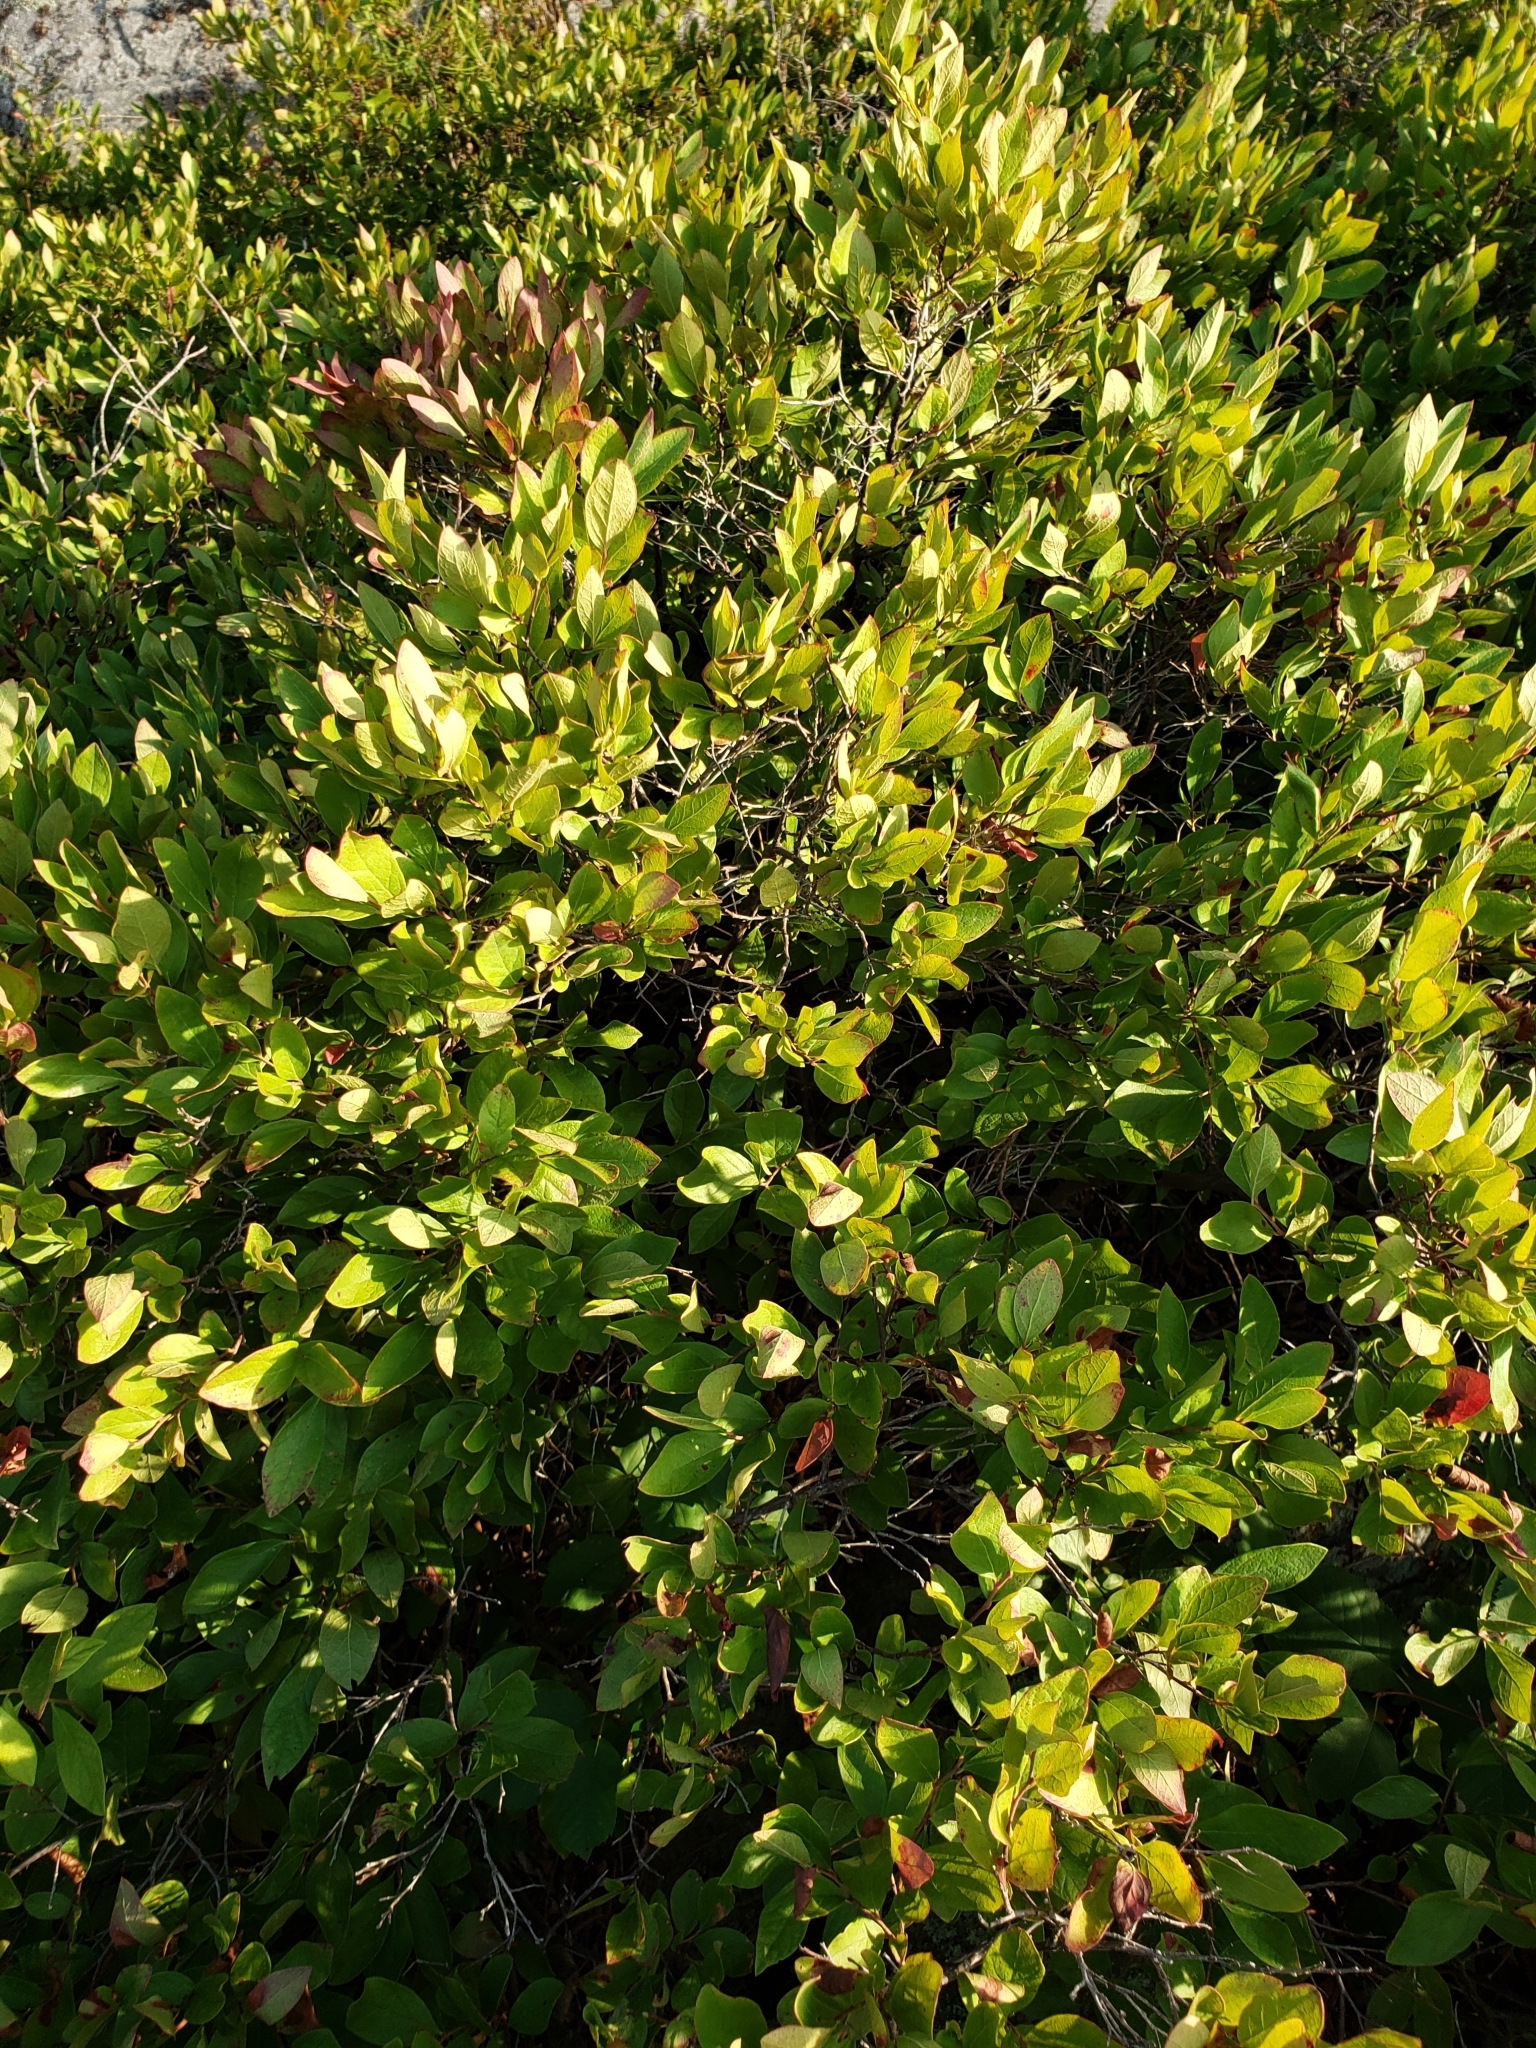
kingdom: Plantae
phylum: Tracheophyta
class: Magnoliopsida
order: Ericales
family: Ericaceae
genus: Gaylussacia
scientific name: Gaylussacia baccata
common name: Black huckleberry
